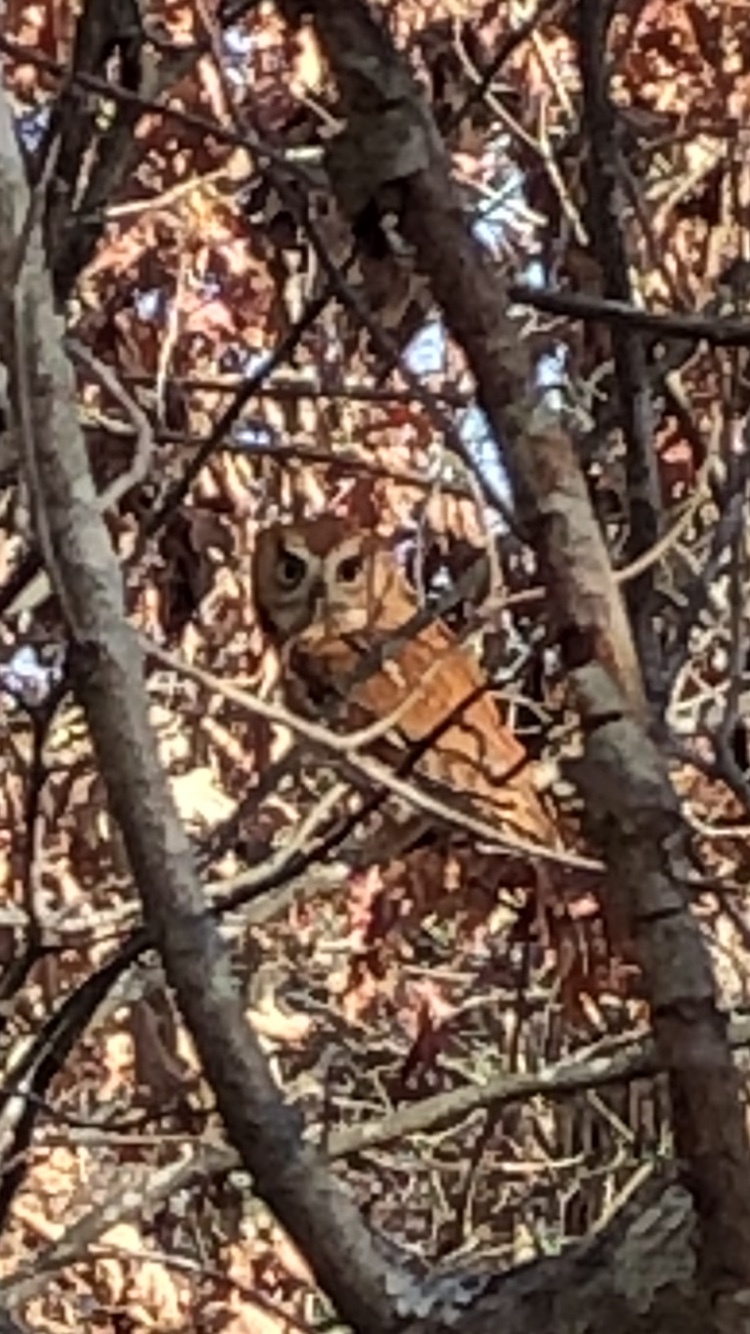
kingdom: Animalia
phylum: Chordata
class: Aves
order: Strigiformes
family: Strigidae
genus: Megascops
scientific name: Megascops asio
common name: Eastern screech-owl
